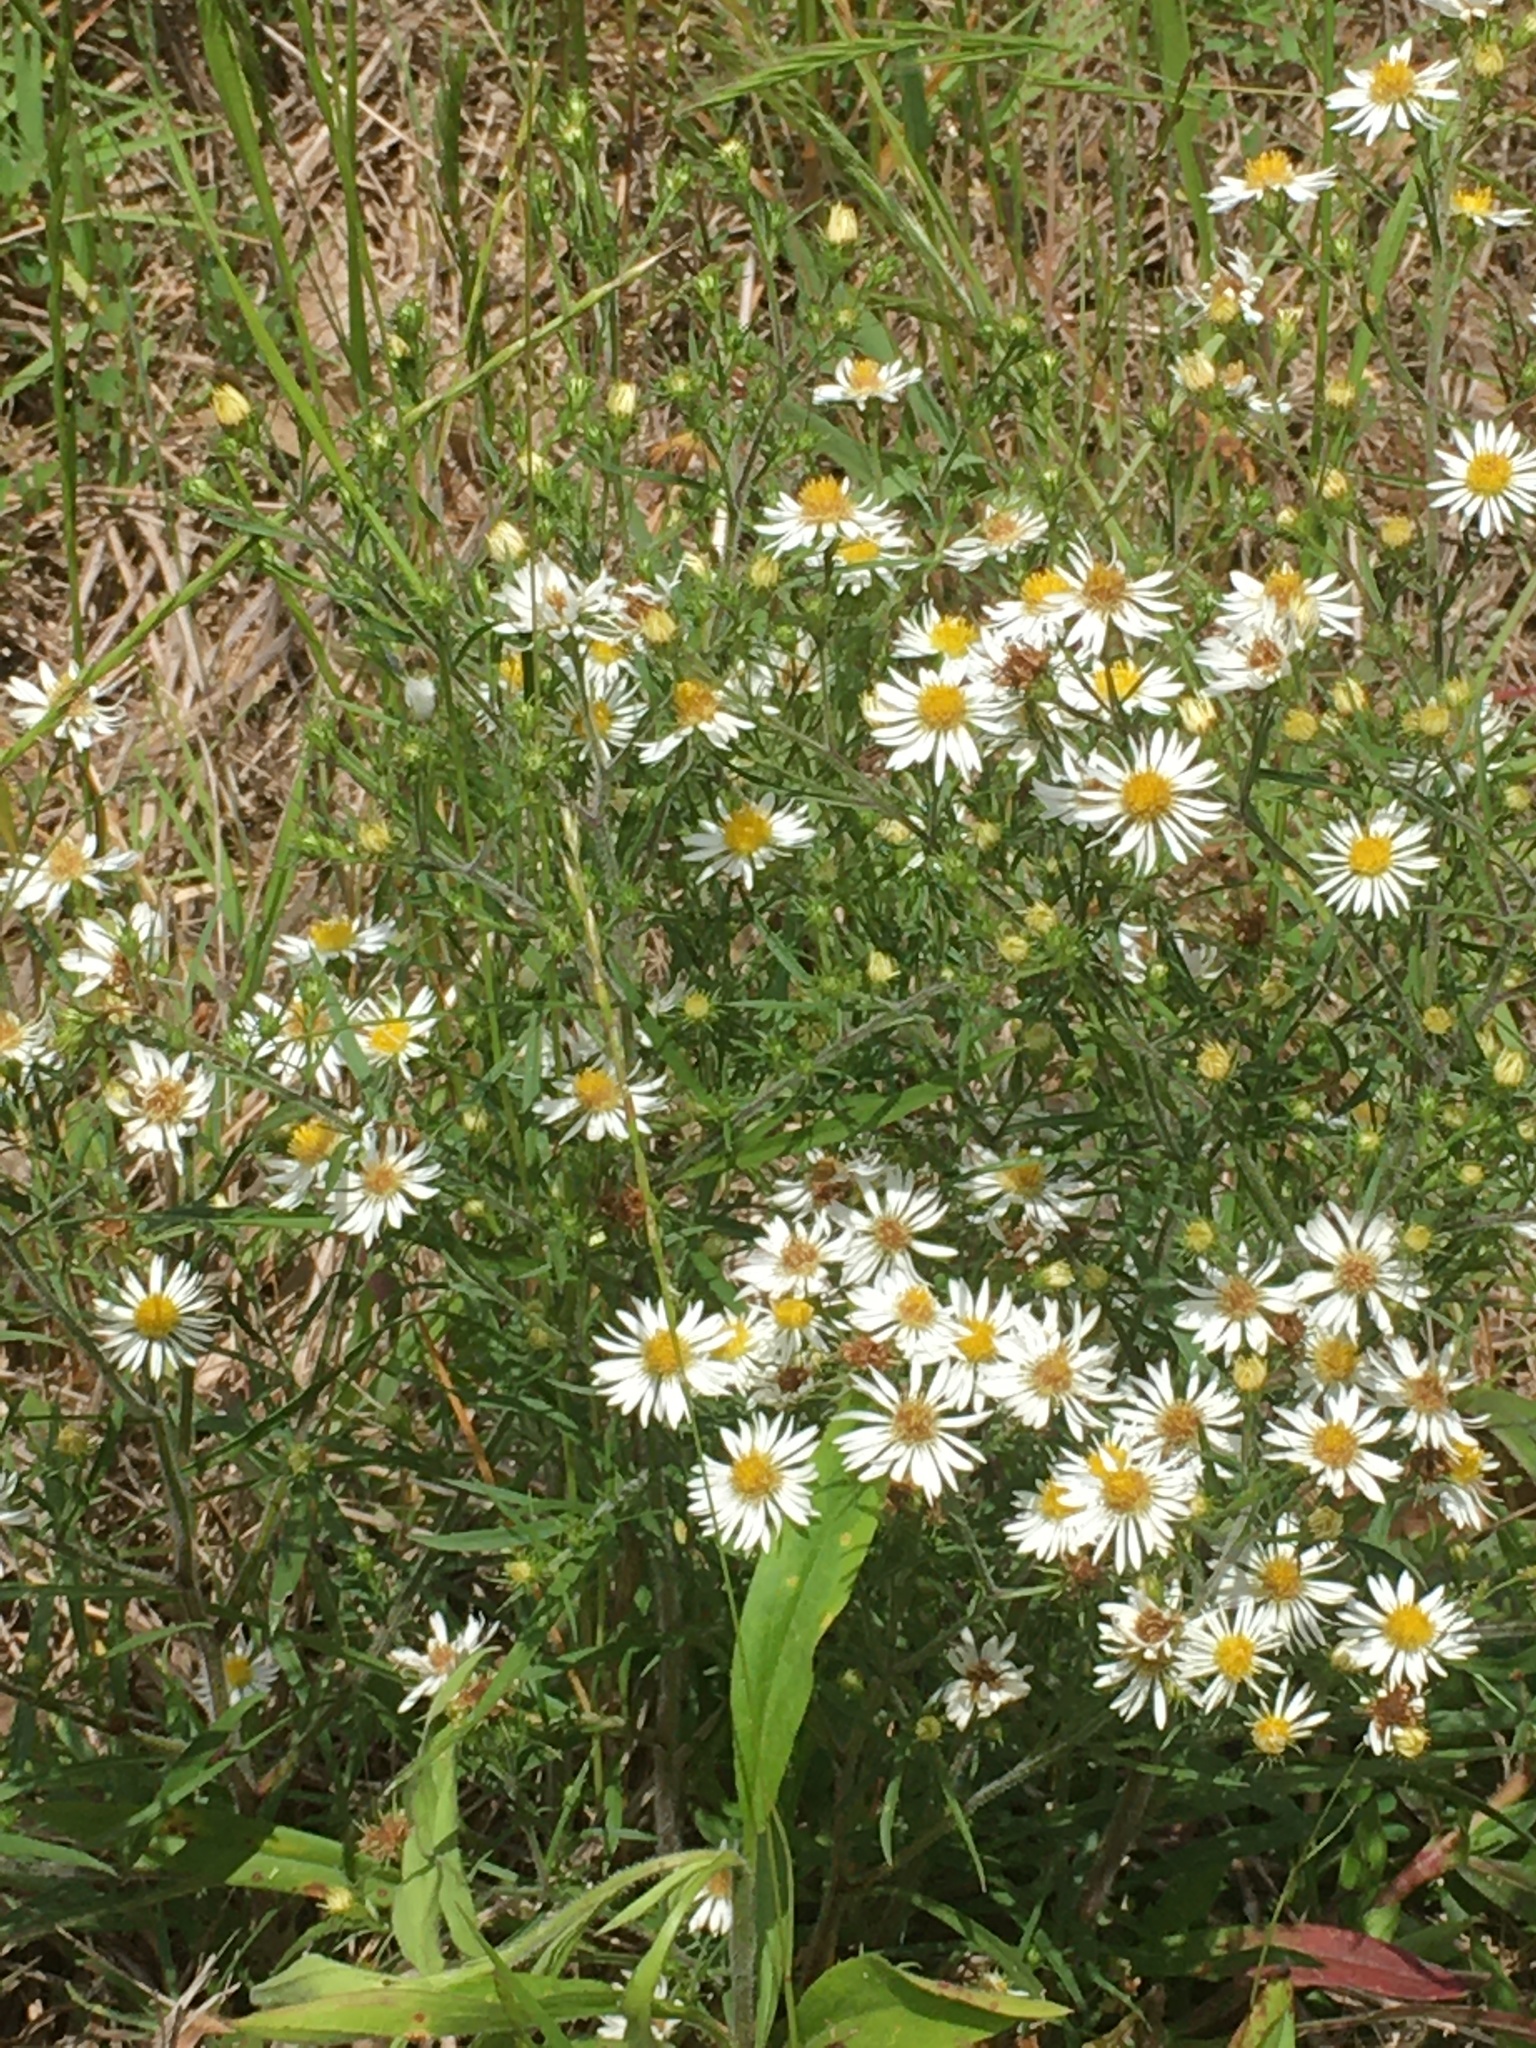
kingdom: Plantae
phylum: Tracheophyta
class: Magnoliopsida
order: Asterales
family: Asteraceae
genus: Symphyotrichum
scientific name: Symphyotrichum pilosum
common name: Awl aster
